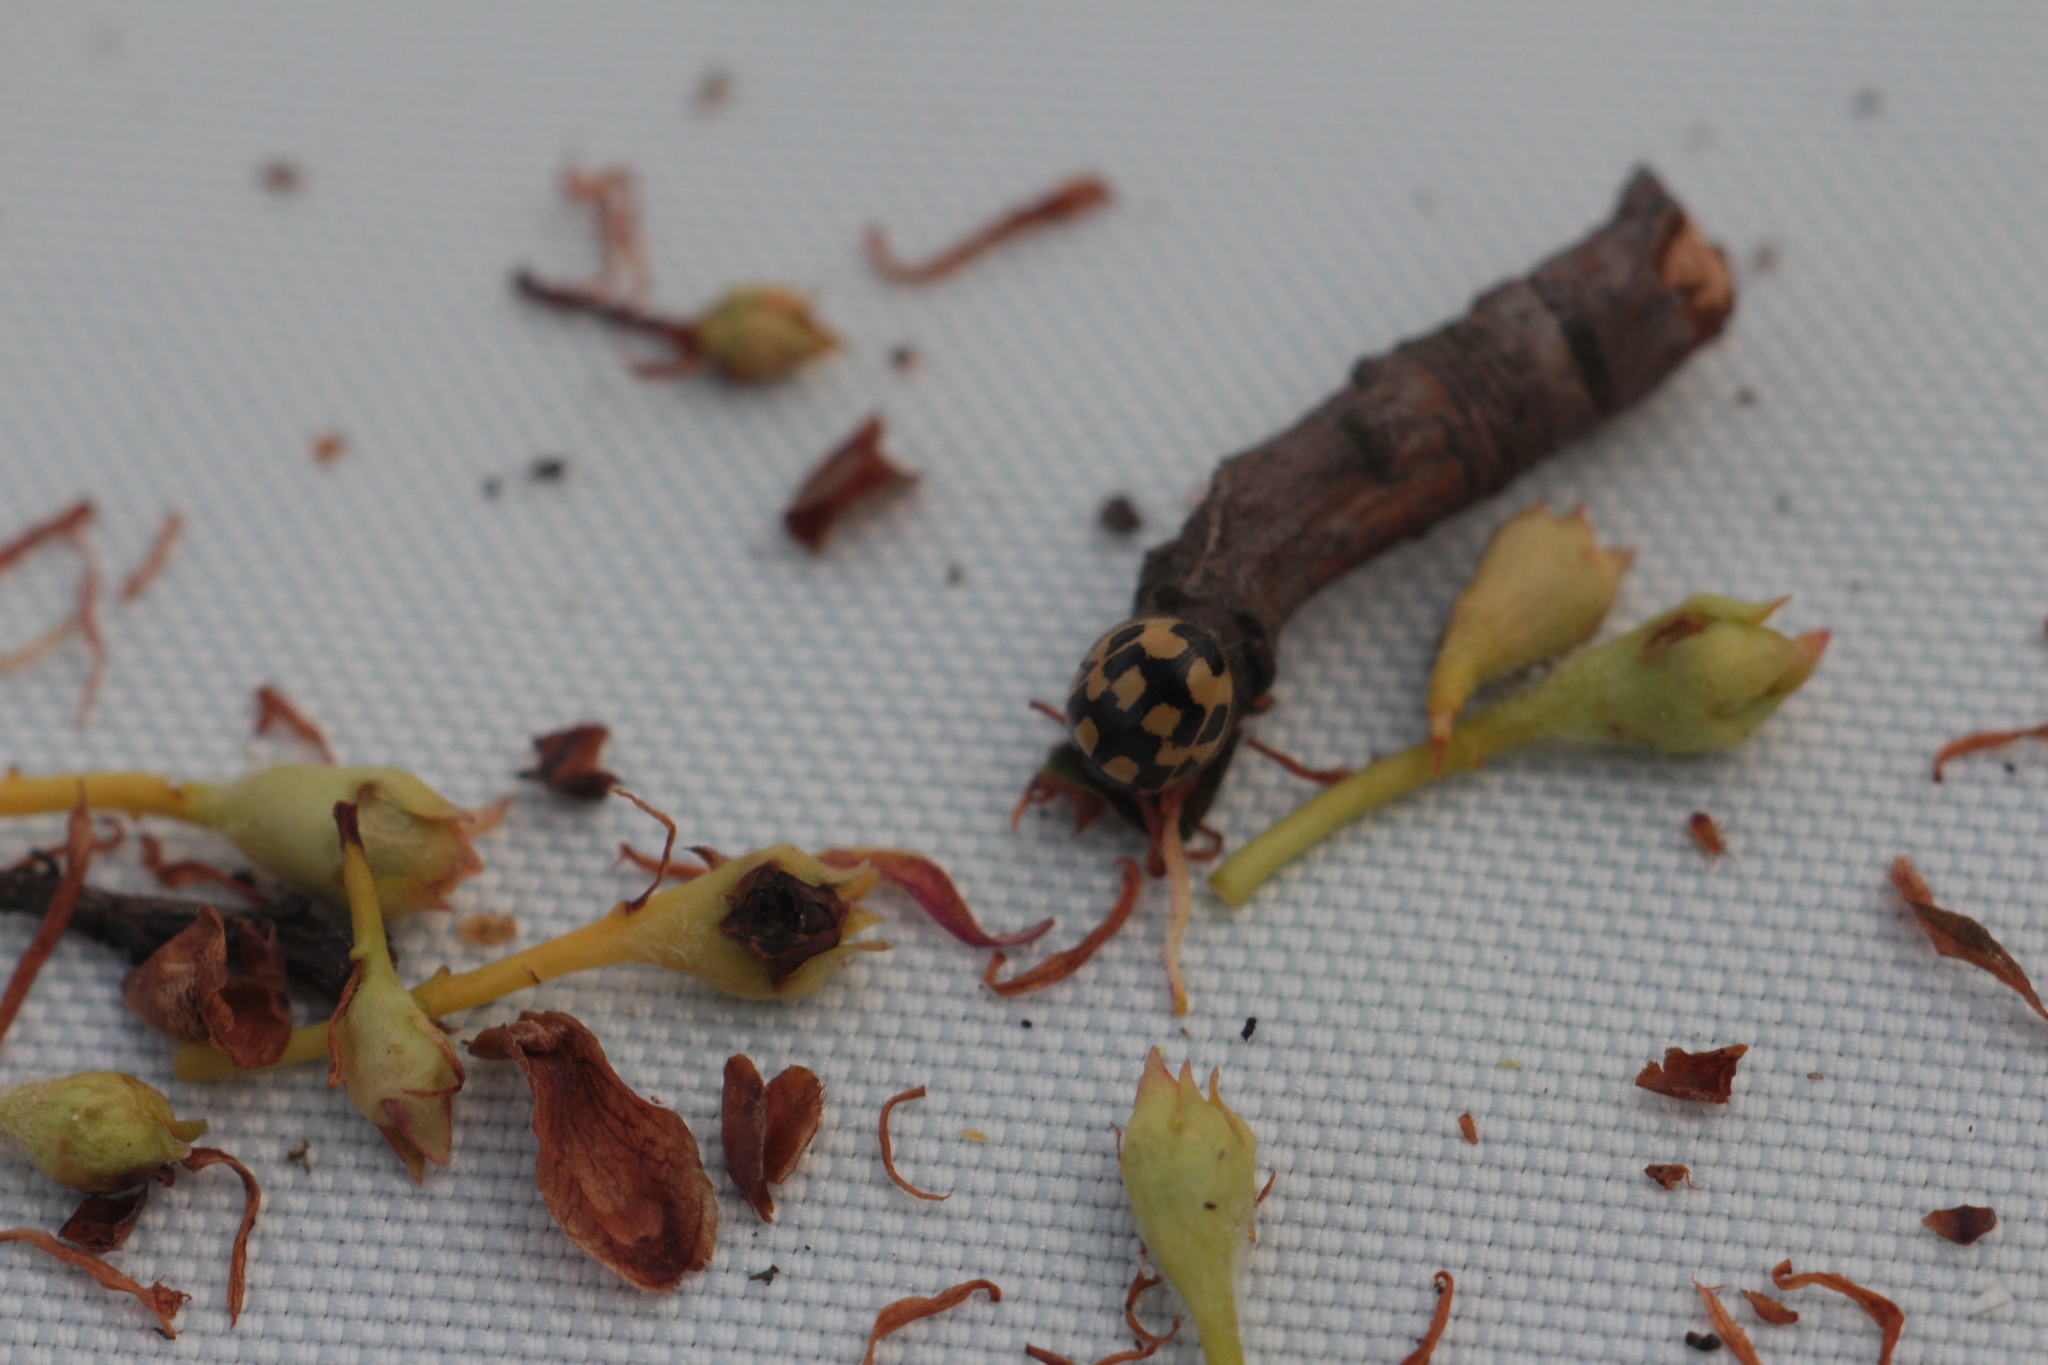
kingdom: Animalia
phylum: Arthropoda
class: Insecta
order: Coleoptera
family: Coccinellidae
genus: Propylaea
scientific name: Propylaea quatuordecimpunctata
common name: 14-spotted ladybird beetle
